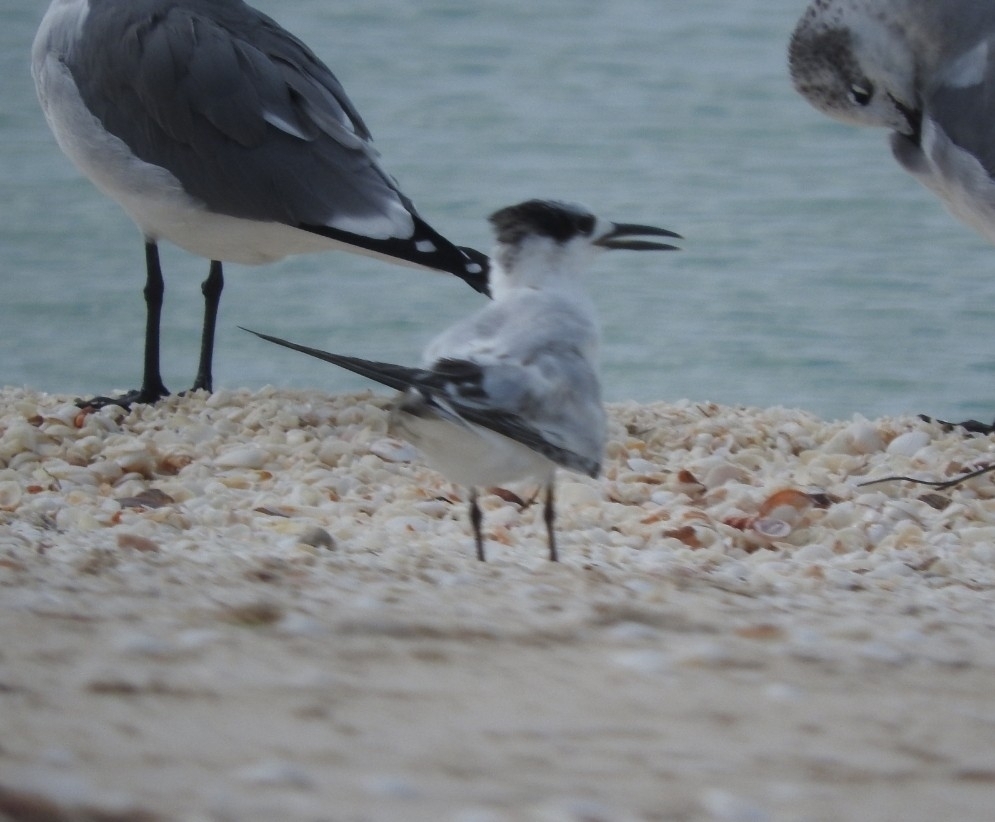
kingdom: Animalia
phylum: Chordata
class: Aves
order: Charadriiformes
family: Laridae
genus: Thalasseus
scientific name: Thalasseus sandvicensis
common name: Sandwich tern
